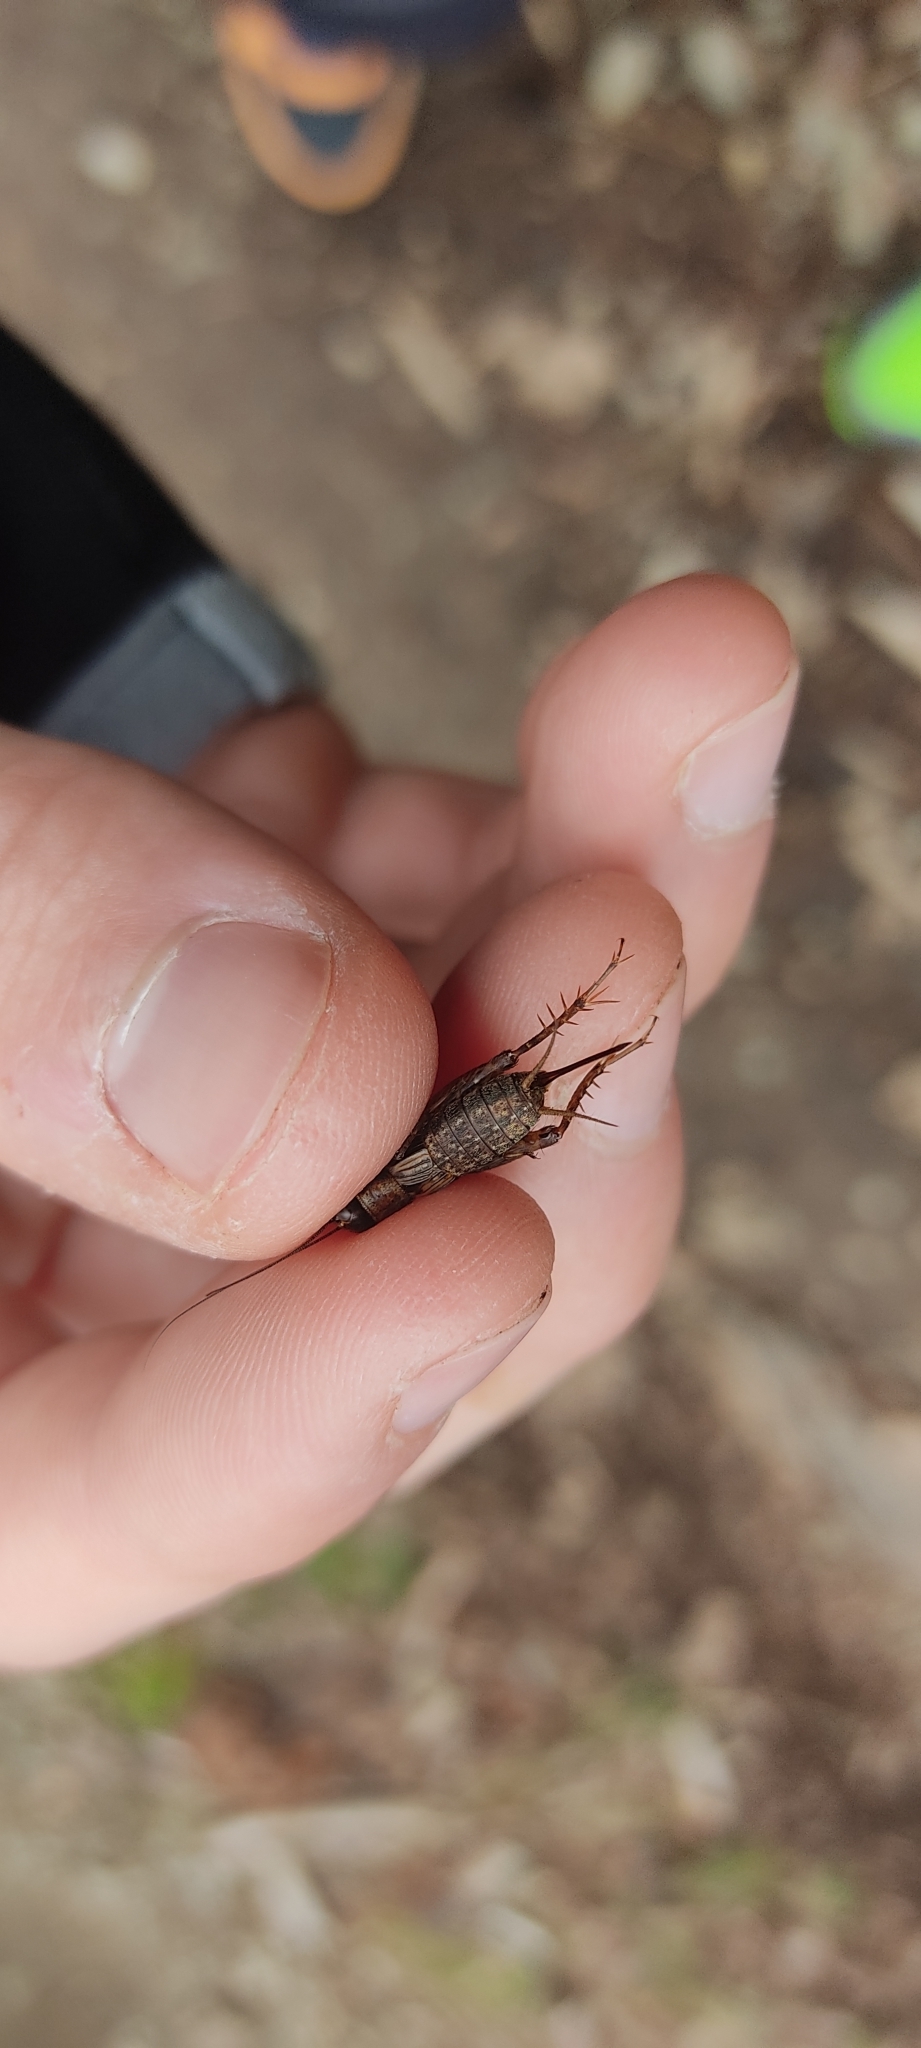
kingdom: Animalia
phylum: Arthropoda
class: Insecta
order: Orthoptera
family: Trigonidiidae
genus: Nemobius
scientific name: Nemobius sylvestris
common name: Wood-cricket
